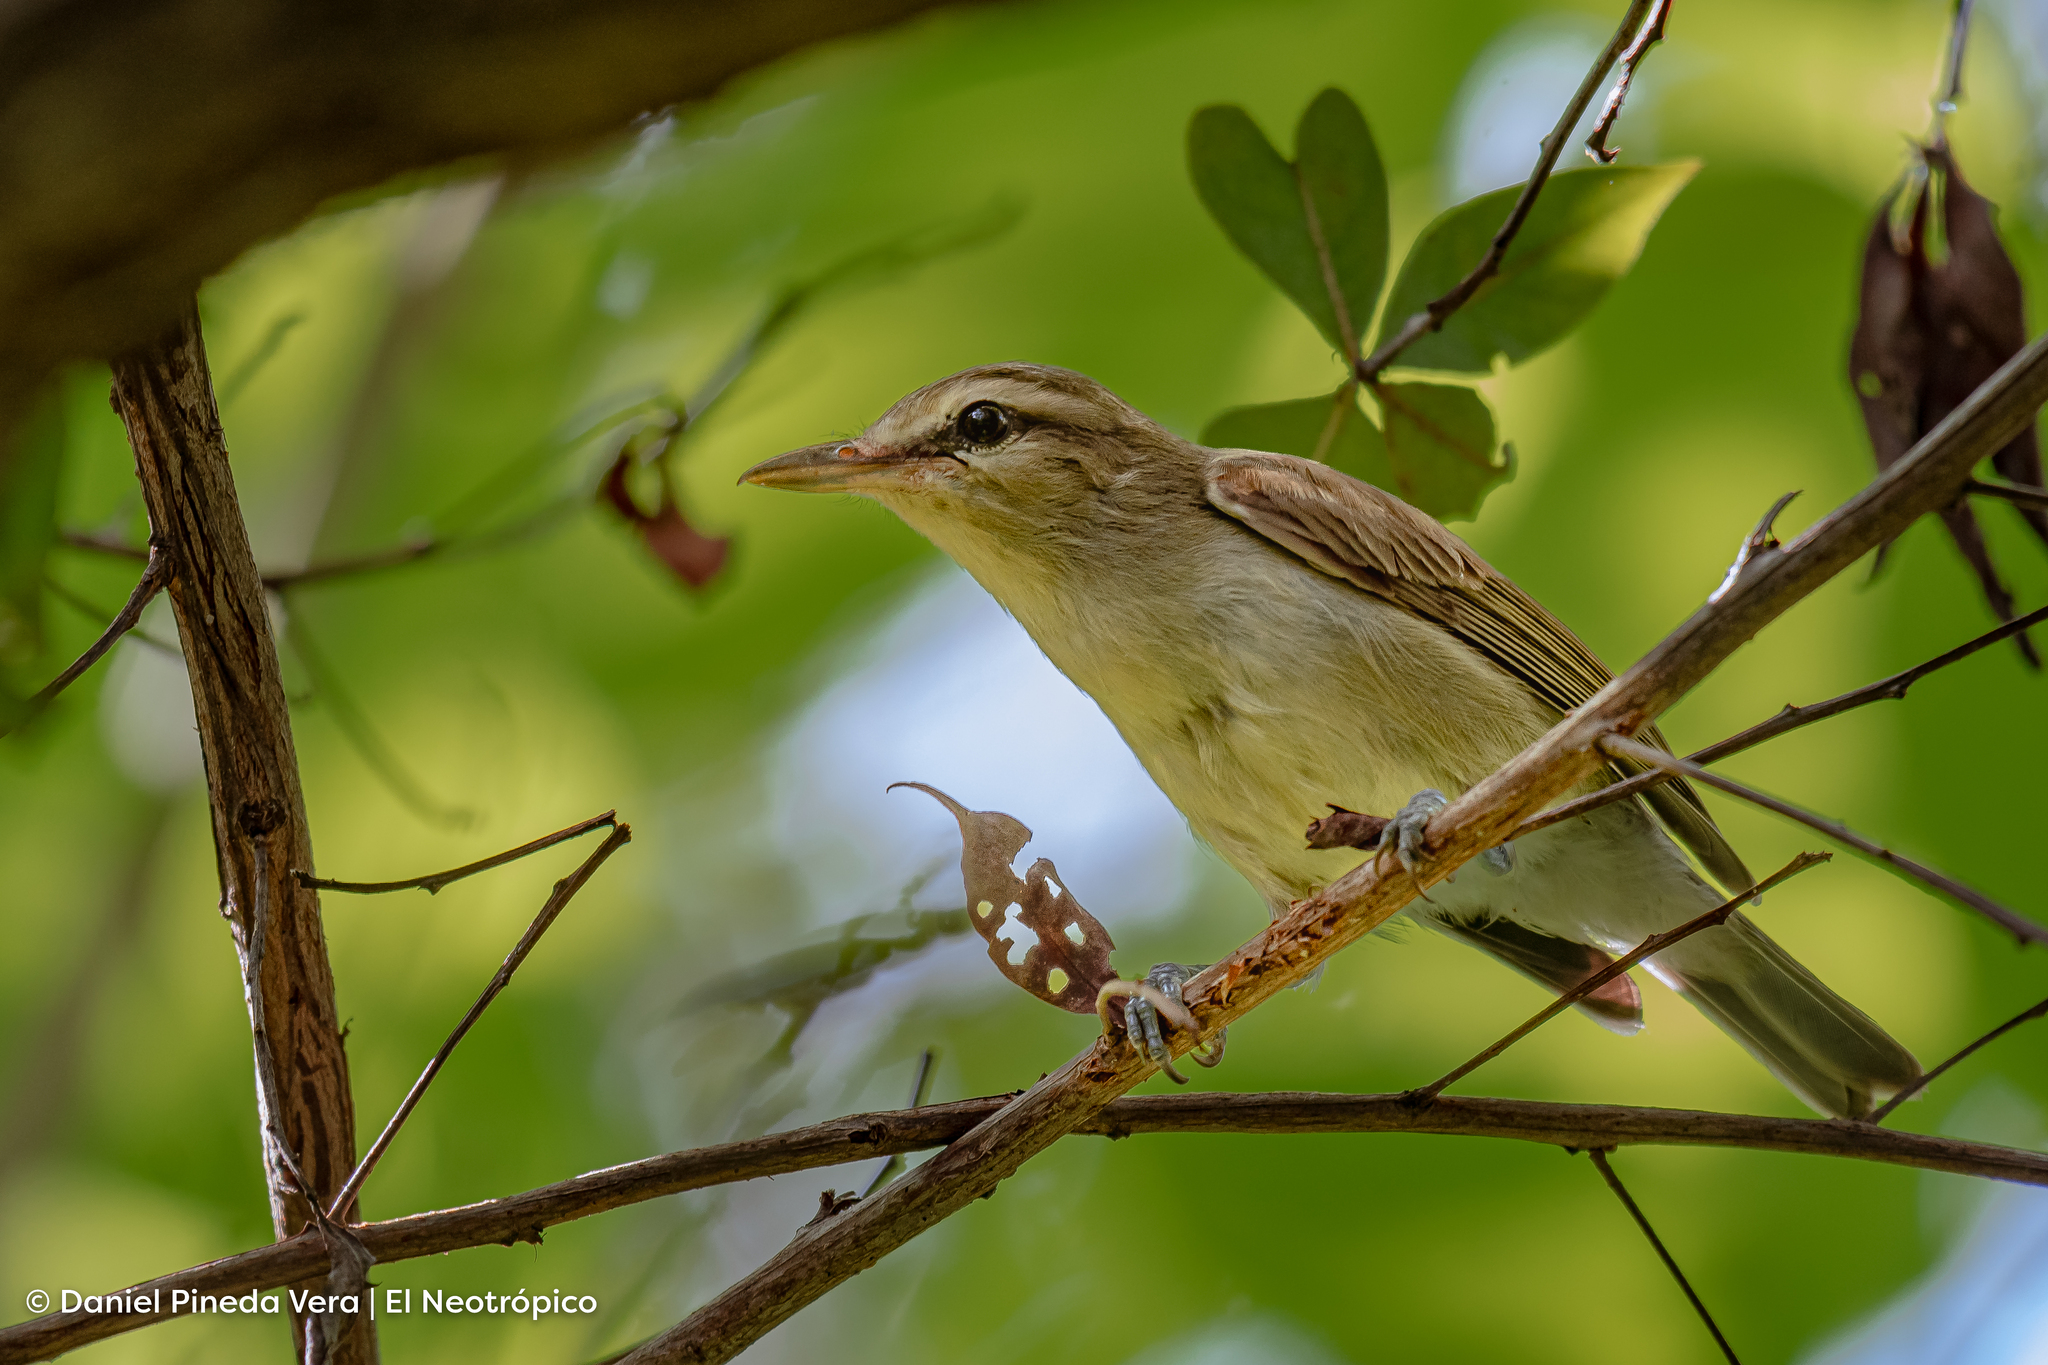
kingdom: Animalia
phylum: Chordata
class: Aves
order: Passeriformes
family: Vireonidae
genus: Vireo
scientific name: Vireo magister
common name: Yucatan vireo
